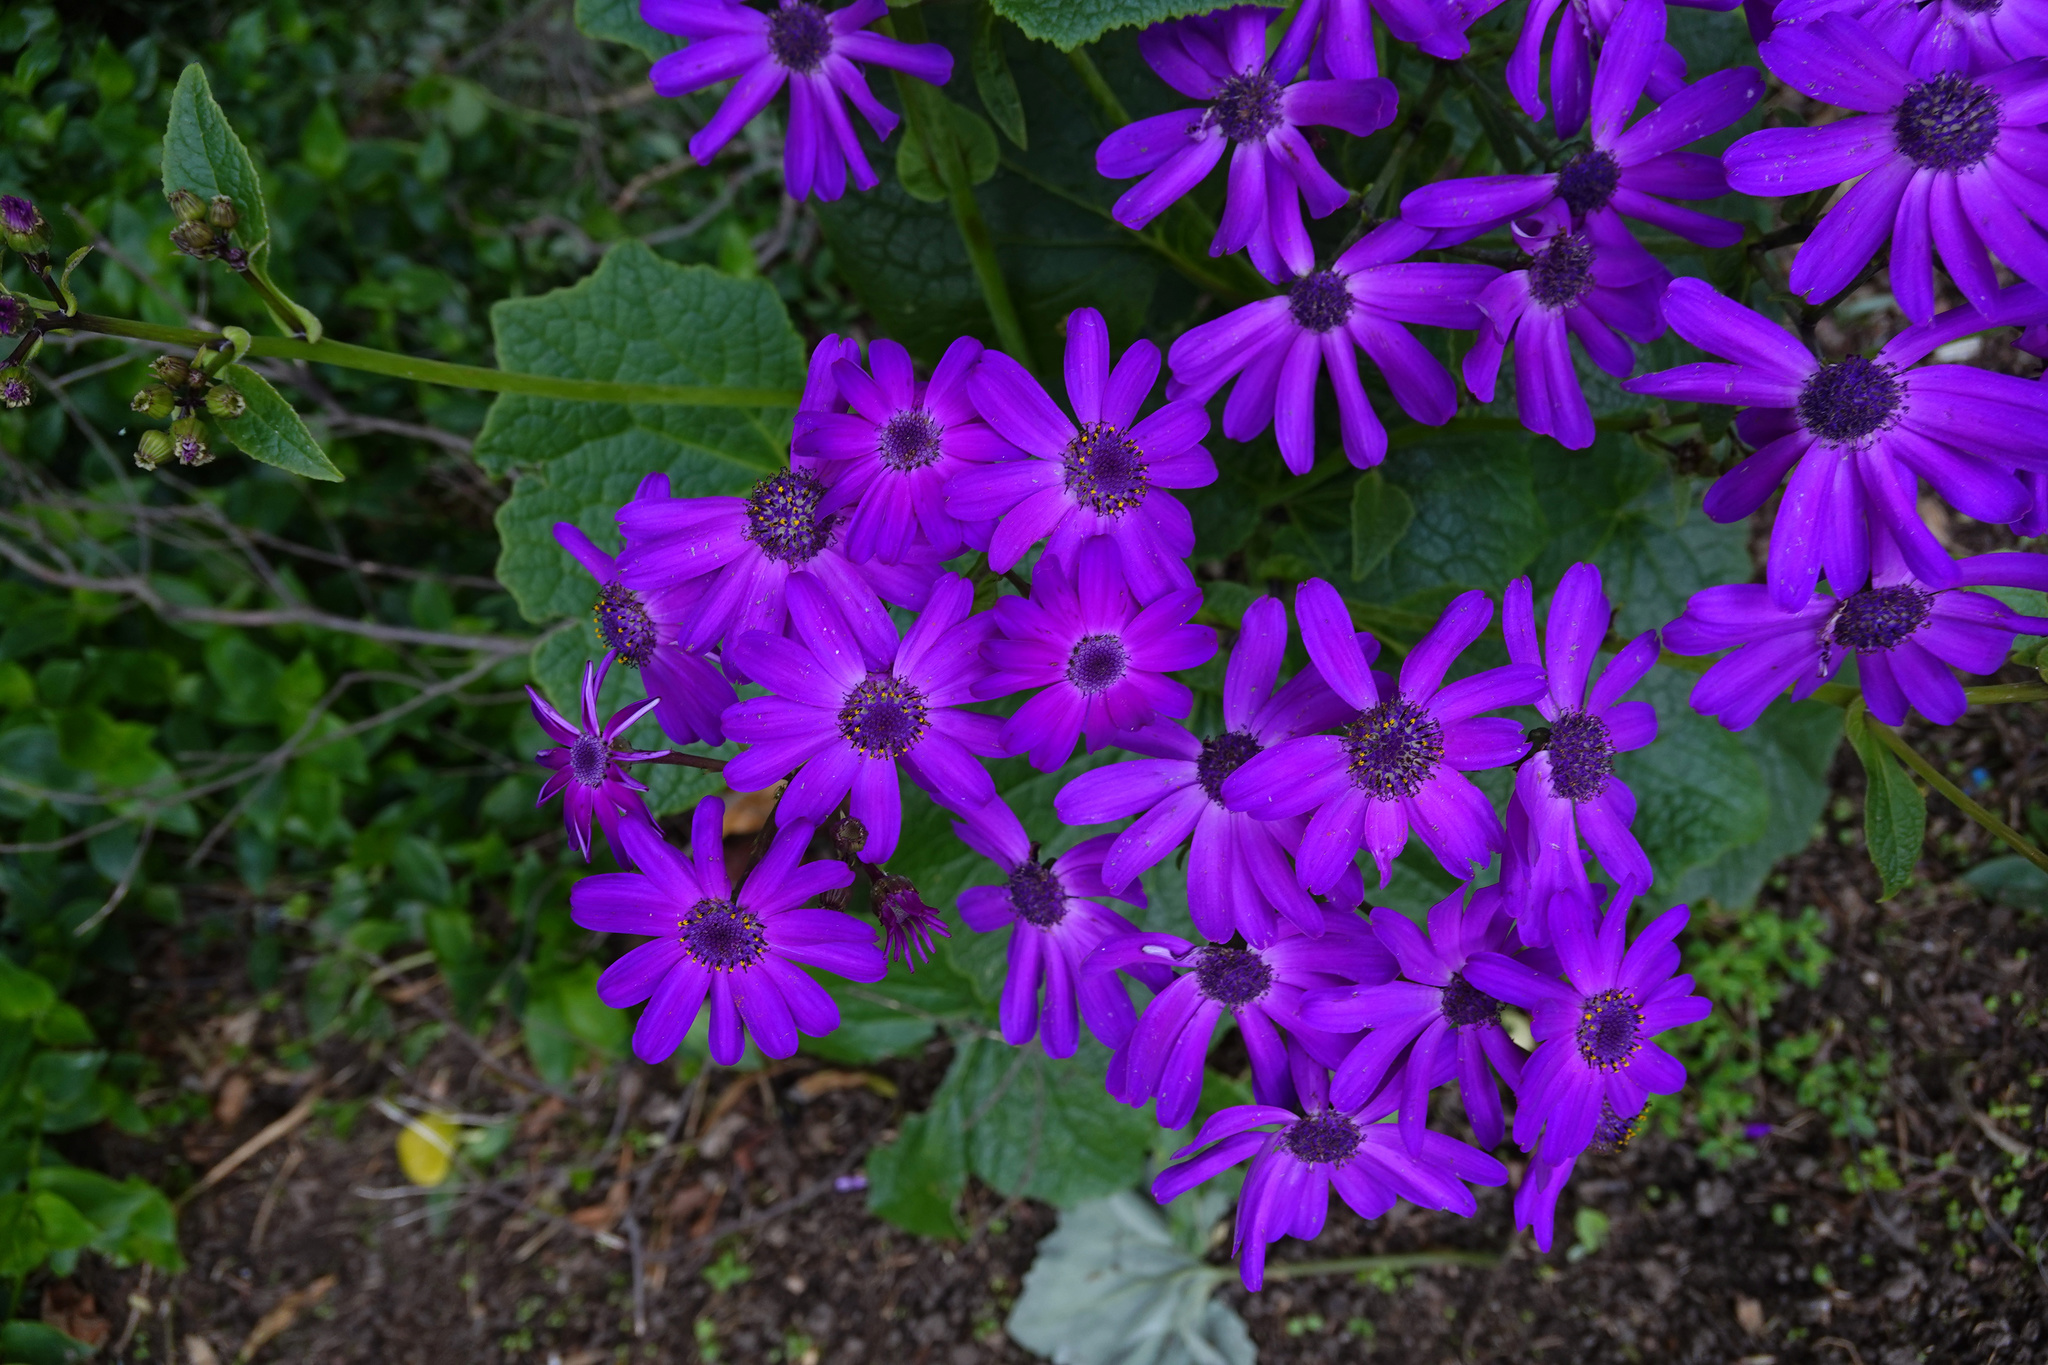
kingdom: Plantae
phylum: Tracheophyta
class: Magnoliopsida
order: Asterales
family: Asteraceae
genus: Pericallis
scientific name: Pericallis hybrida
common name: Cineraria
